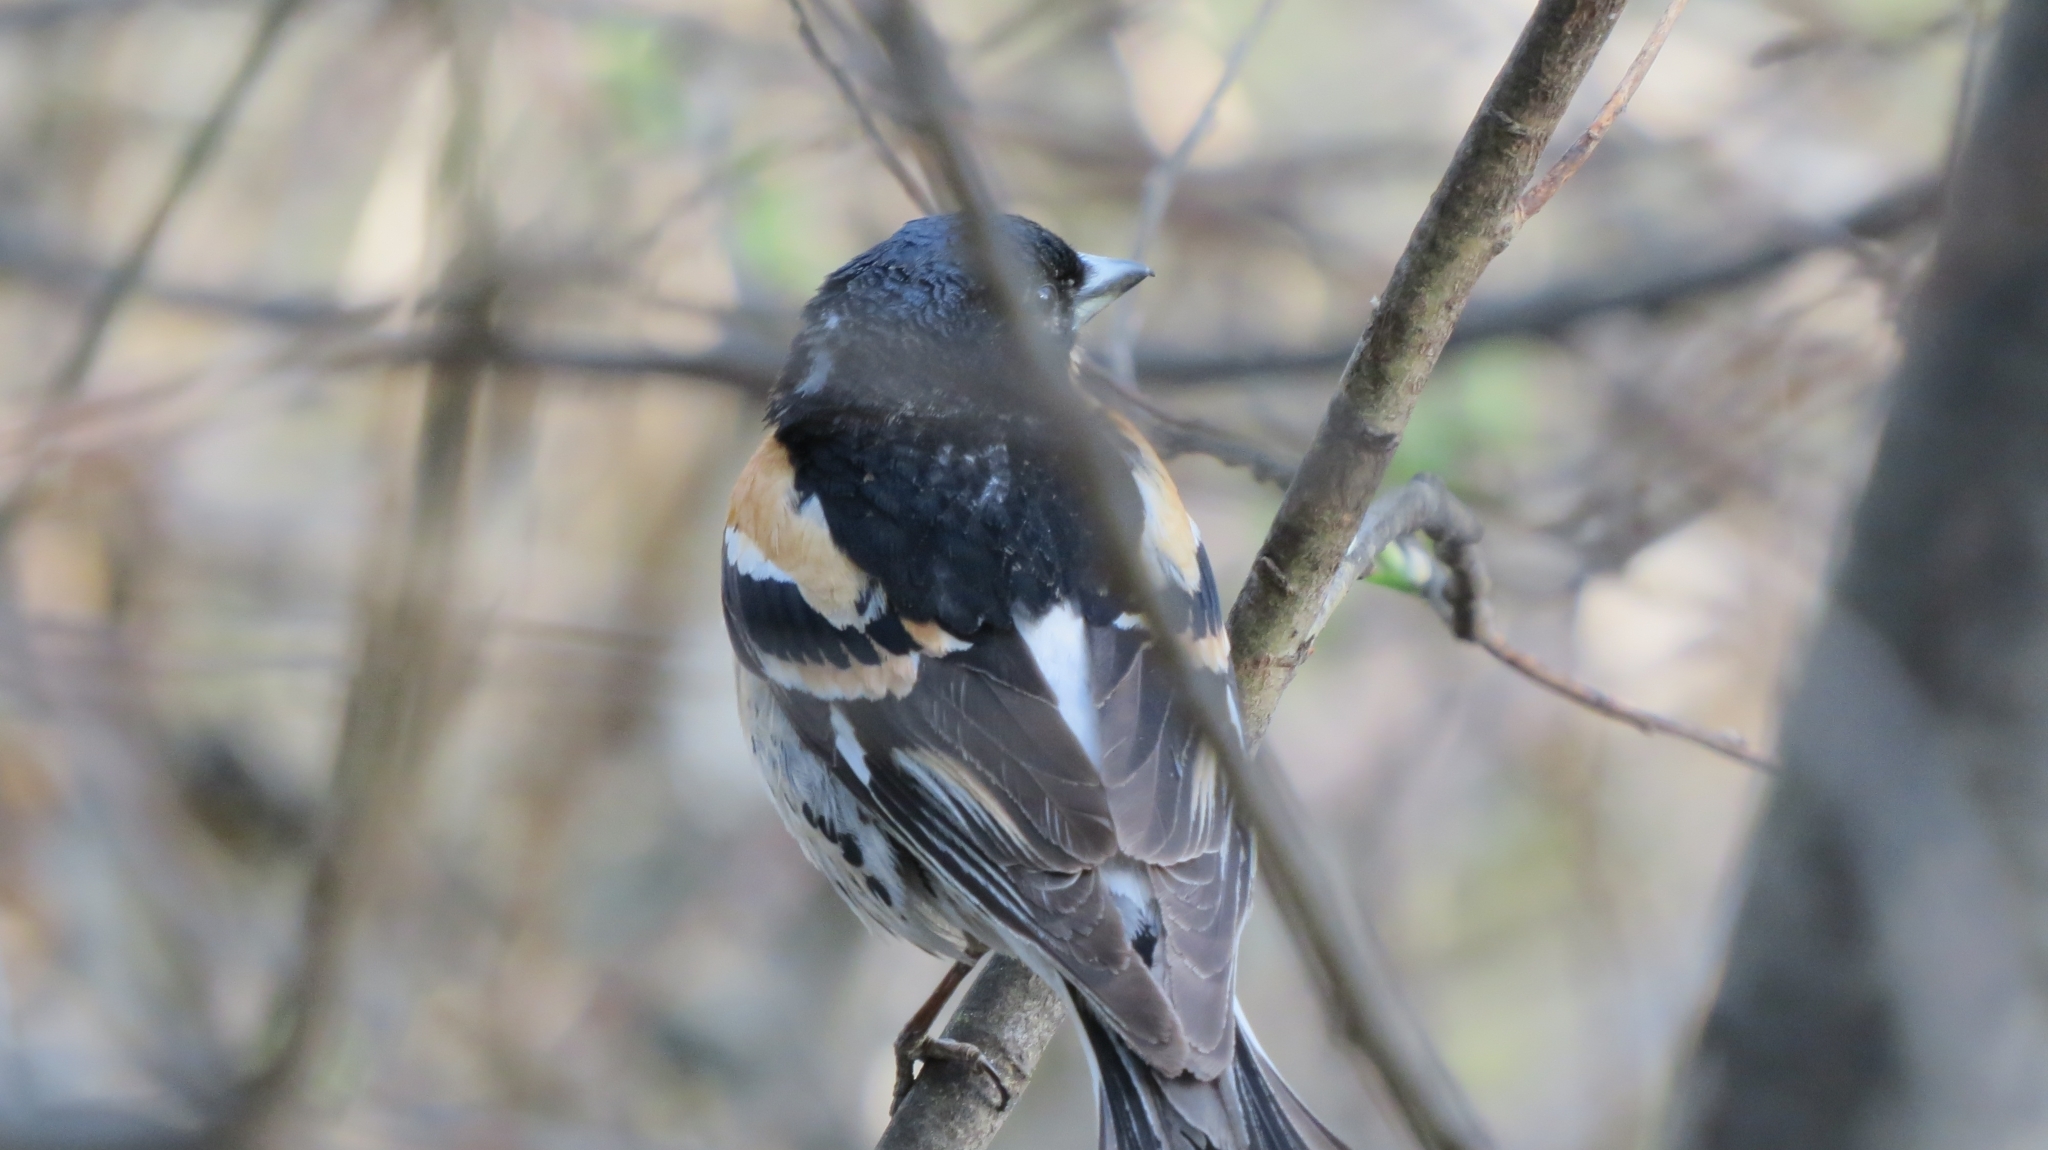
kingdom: Animalia
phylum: Chordata
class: Aves
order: Passeriformes
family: Fringillidae
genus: Fringilla
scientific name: Fringilla montifringilla
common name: Brambling
